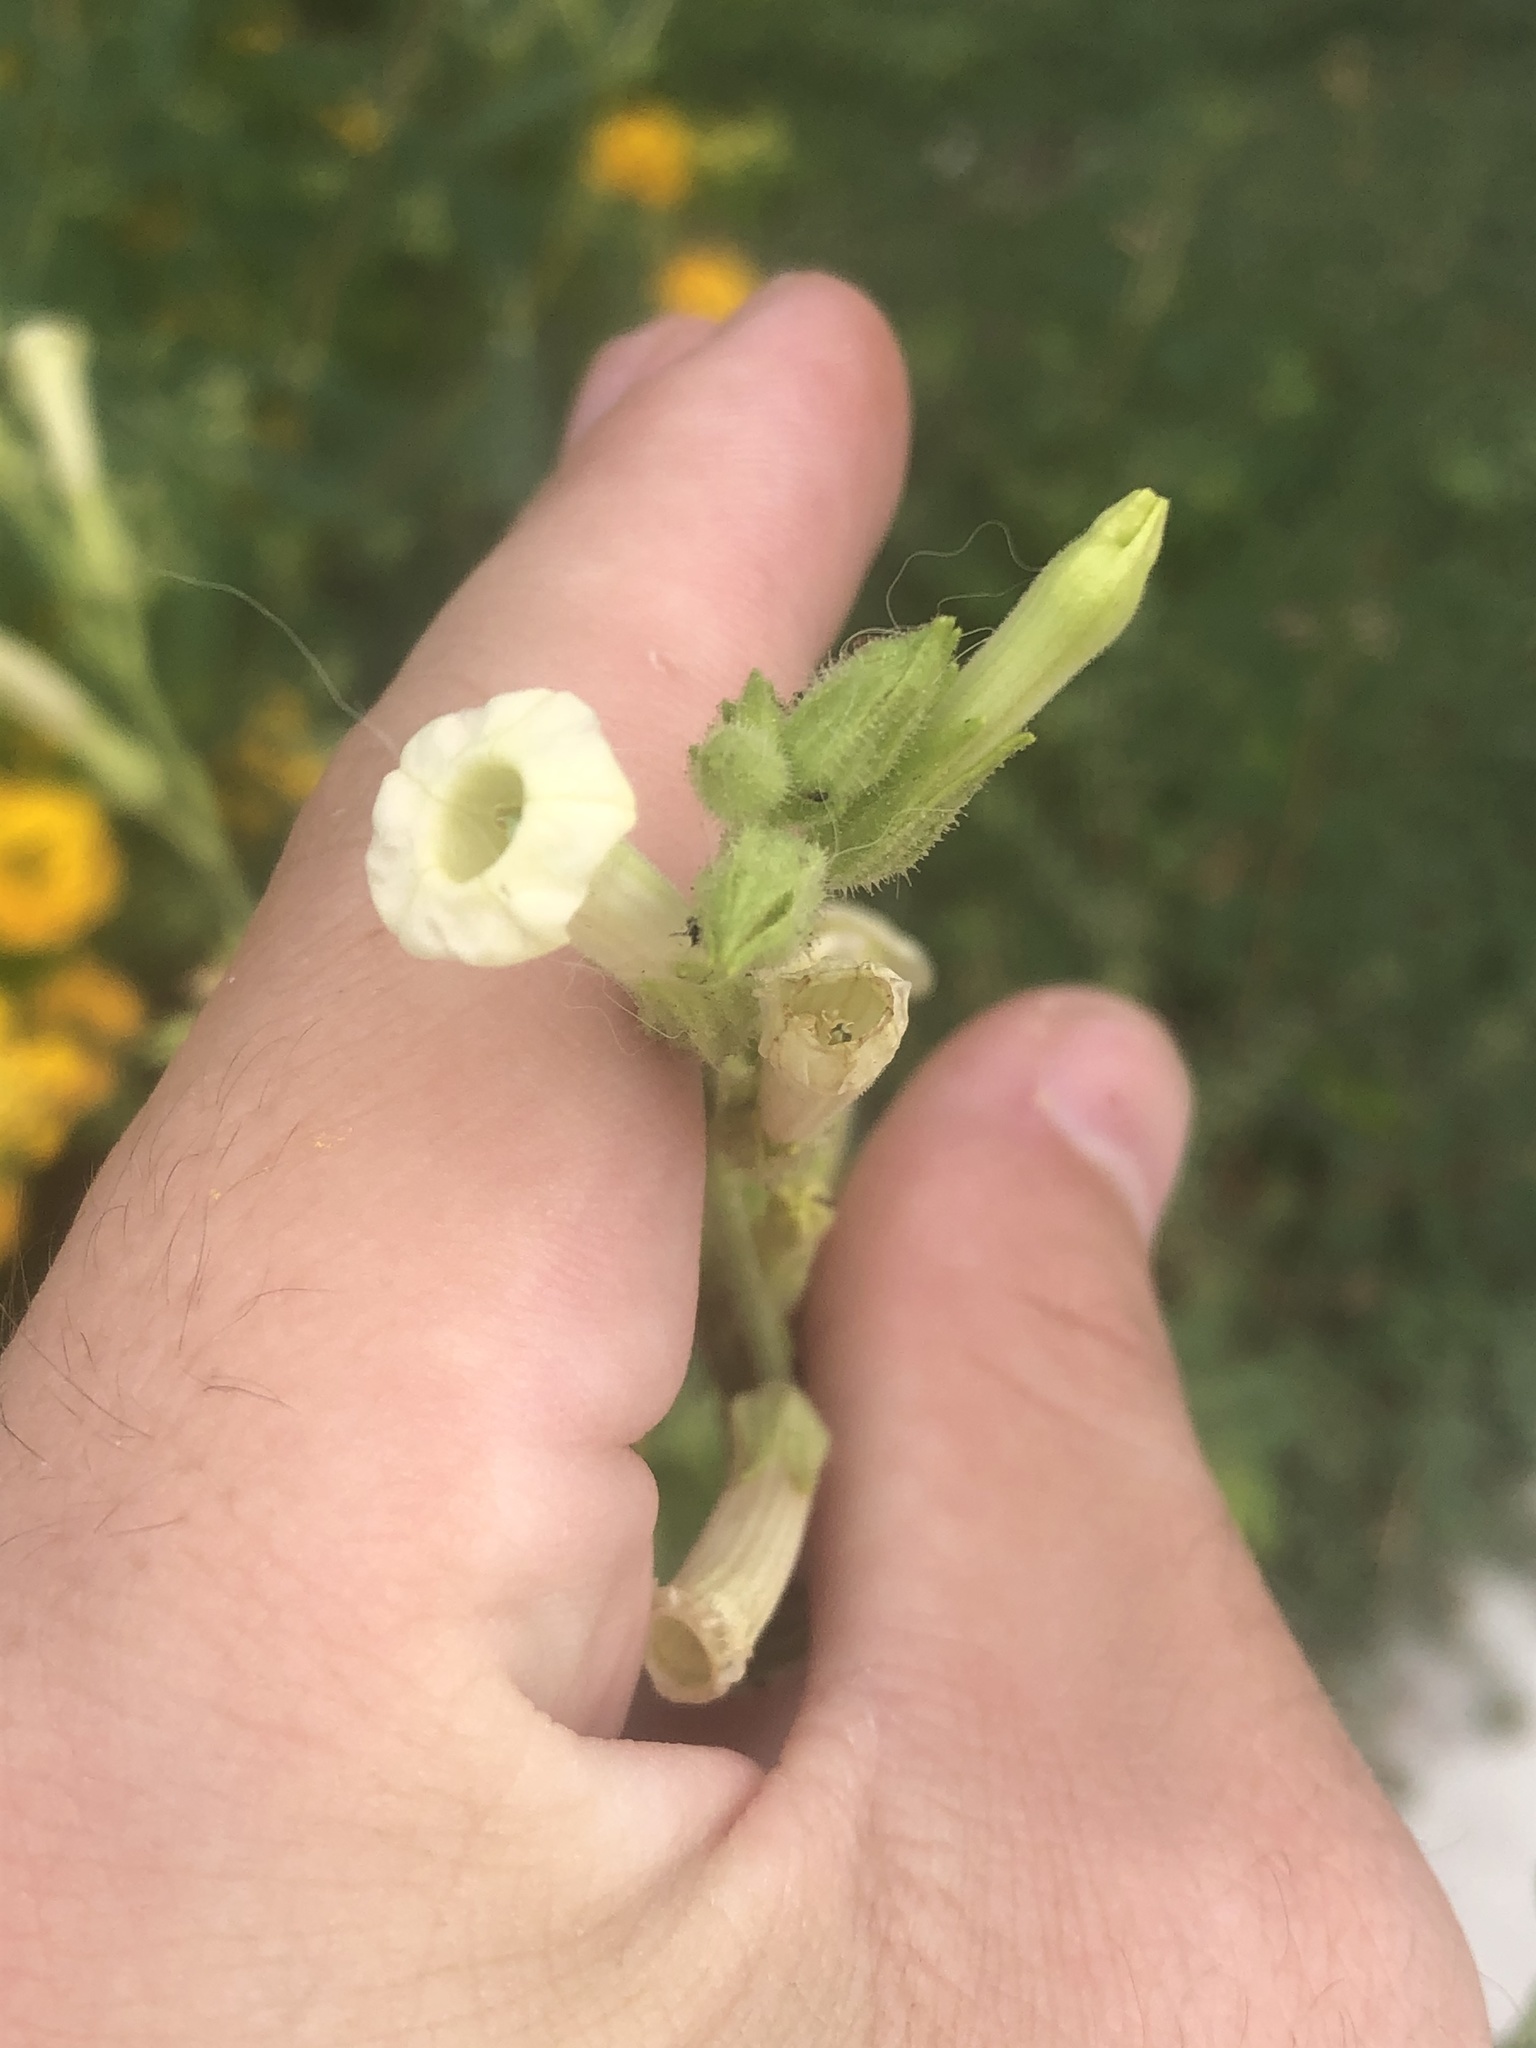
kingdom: Plantae
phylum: Tracheophyta
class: Magnoliopsida
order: Solanales
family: Solanaceae
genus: Nicotiana
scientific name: Nicotiana obtusifolia
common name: Desert tobacco
